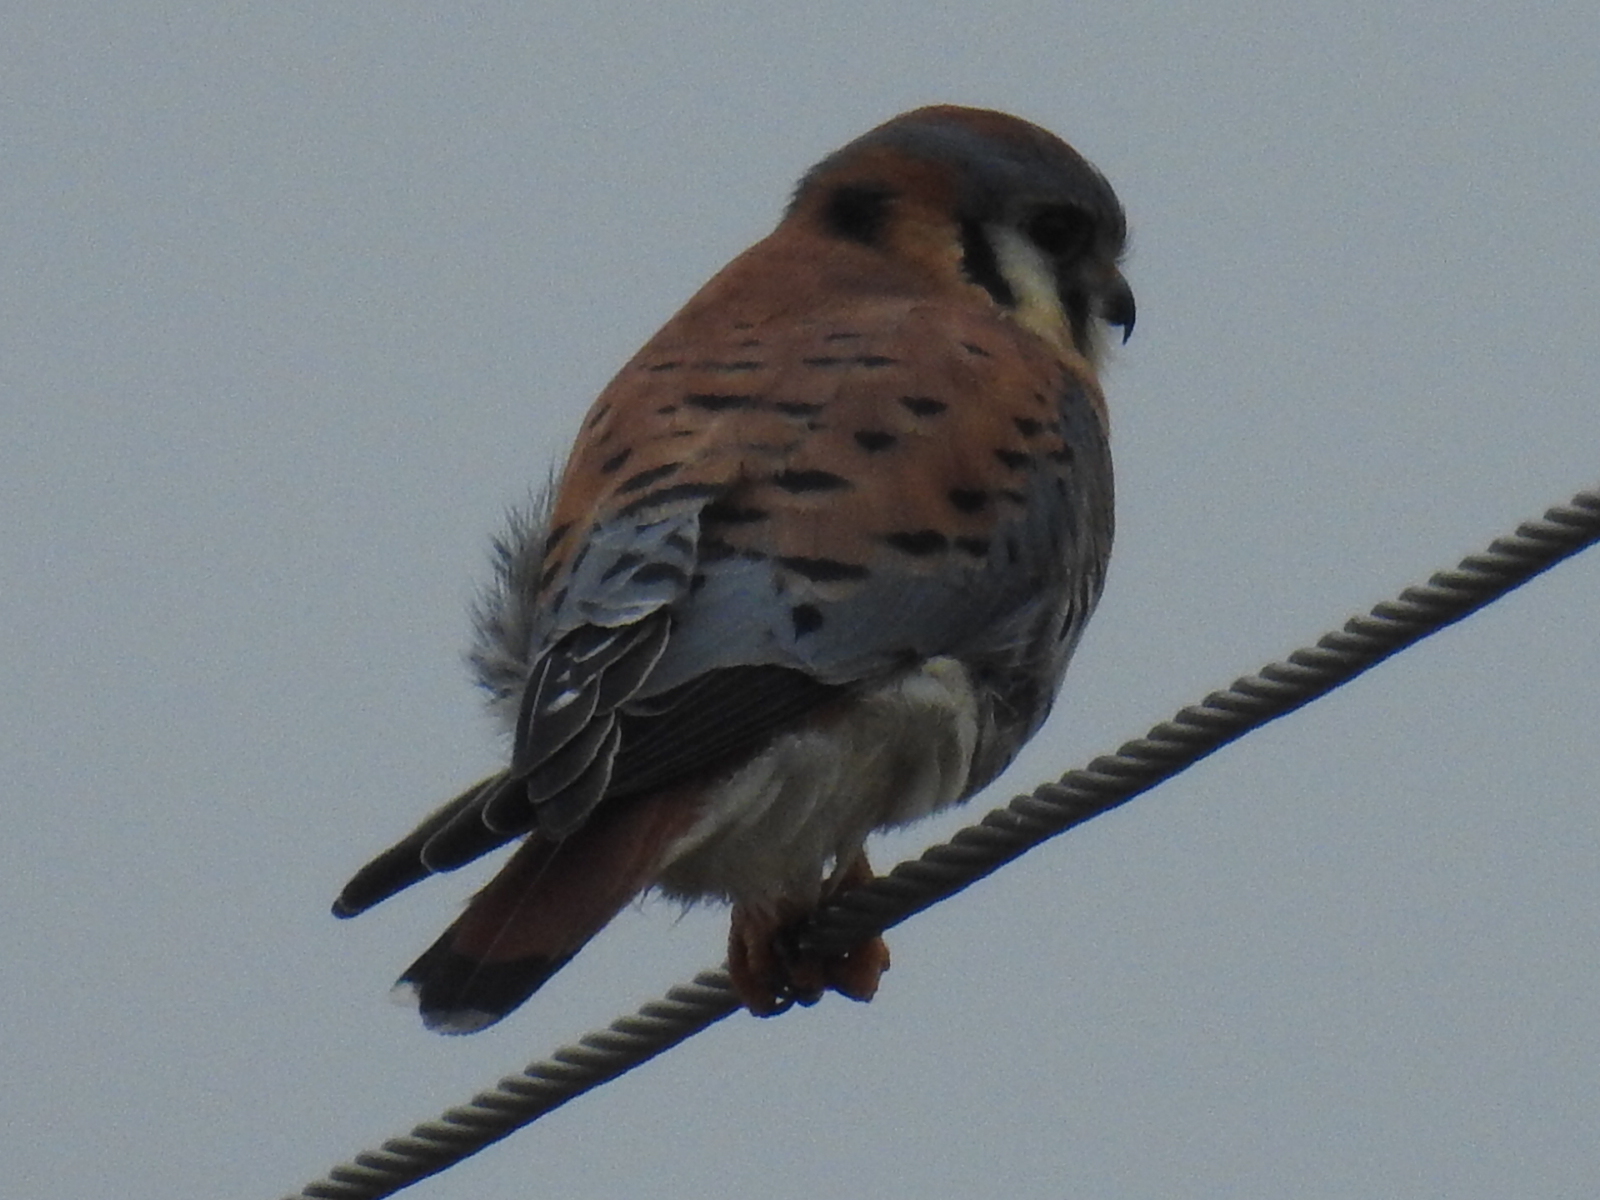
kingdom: Animalia
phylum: Chordata
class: Aves
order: Falconiformes
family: Falconidae
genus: Falco
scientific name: Falco sparverius
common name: American kestrel
